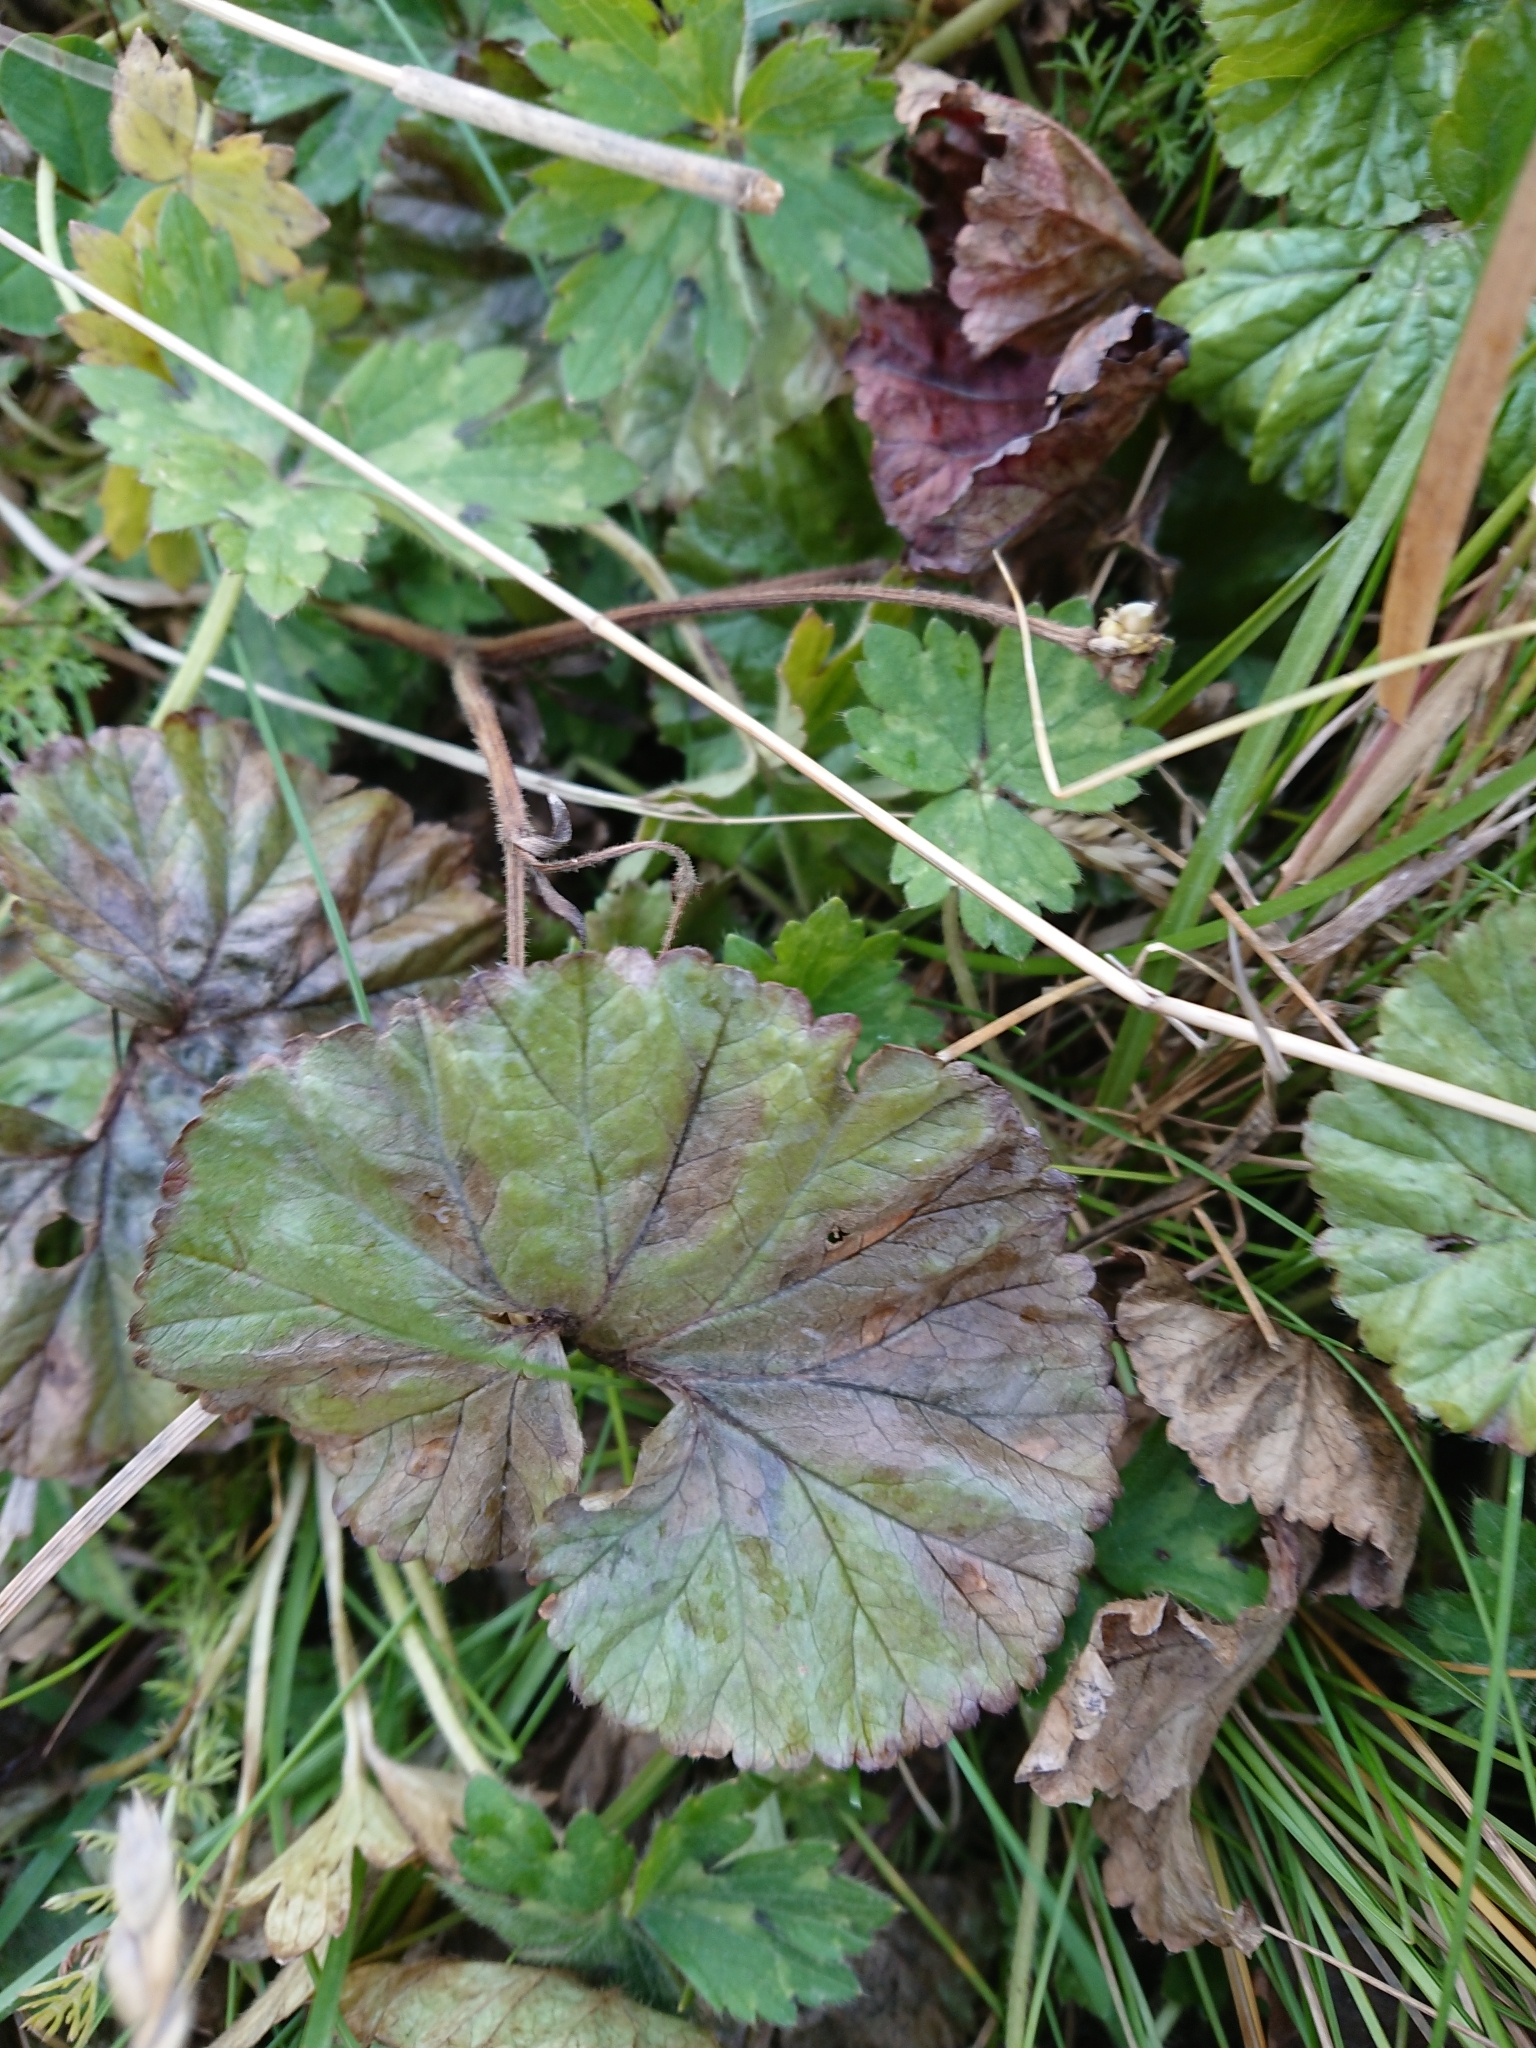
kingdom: Plantae
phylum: Tracheophyta
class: Magnoliopsida
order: Gunnerales
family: Gunneraceae
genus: Gunnera
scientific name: Gunnera magellanica
